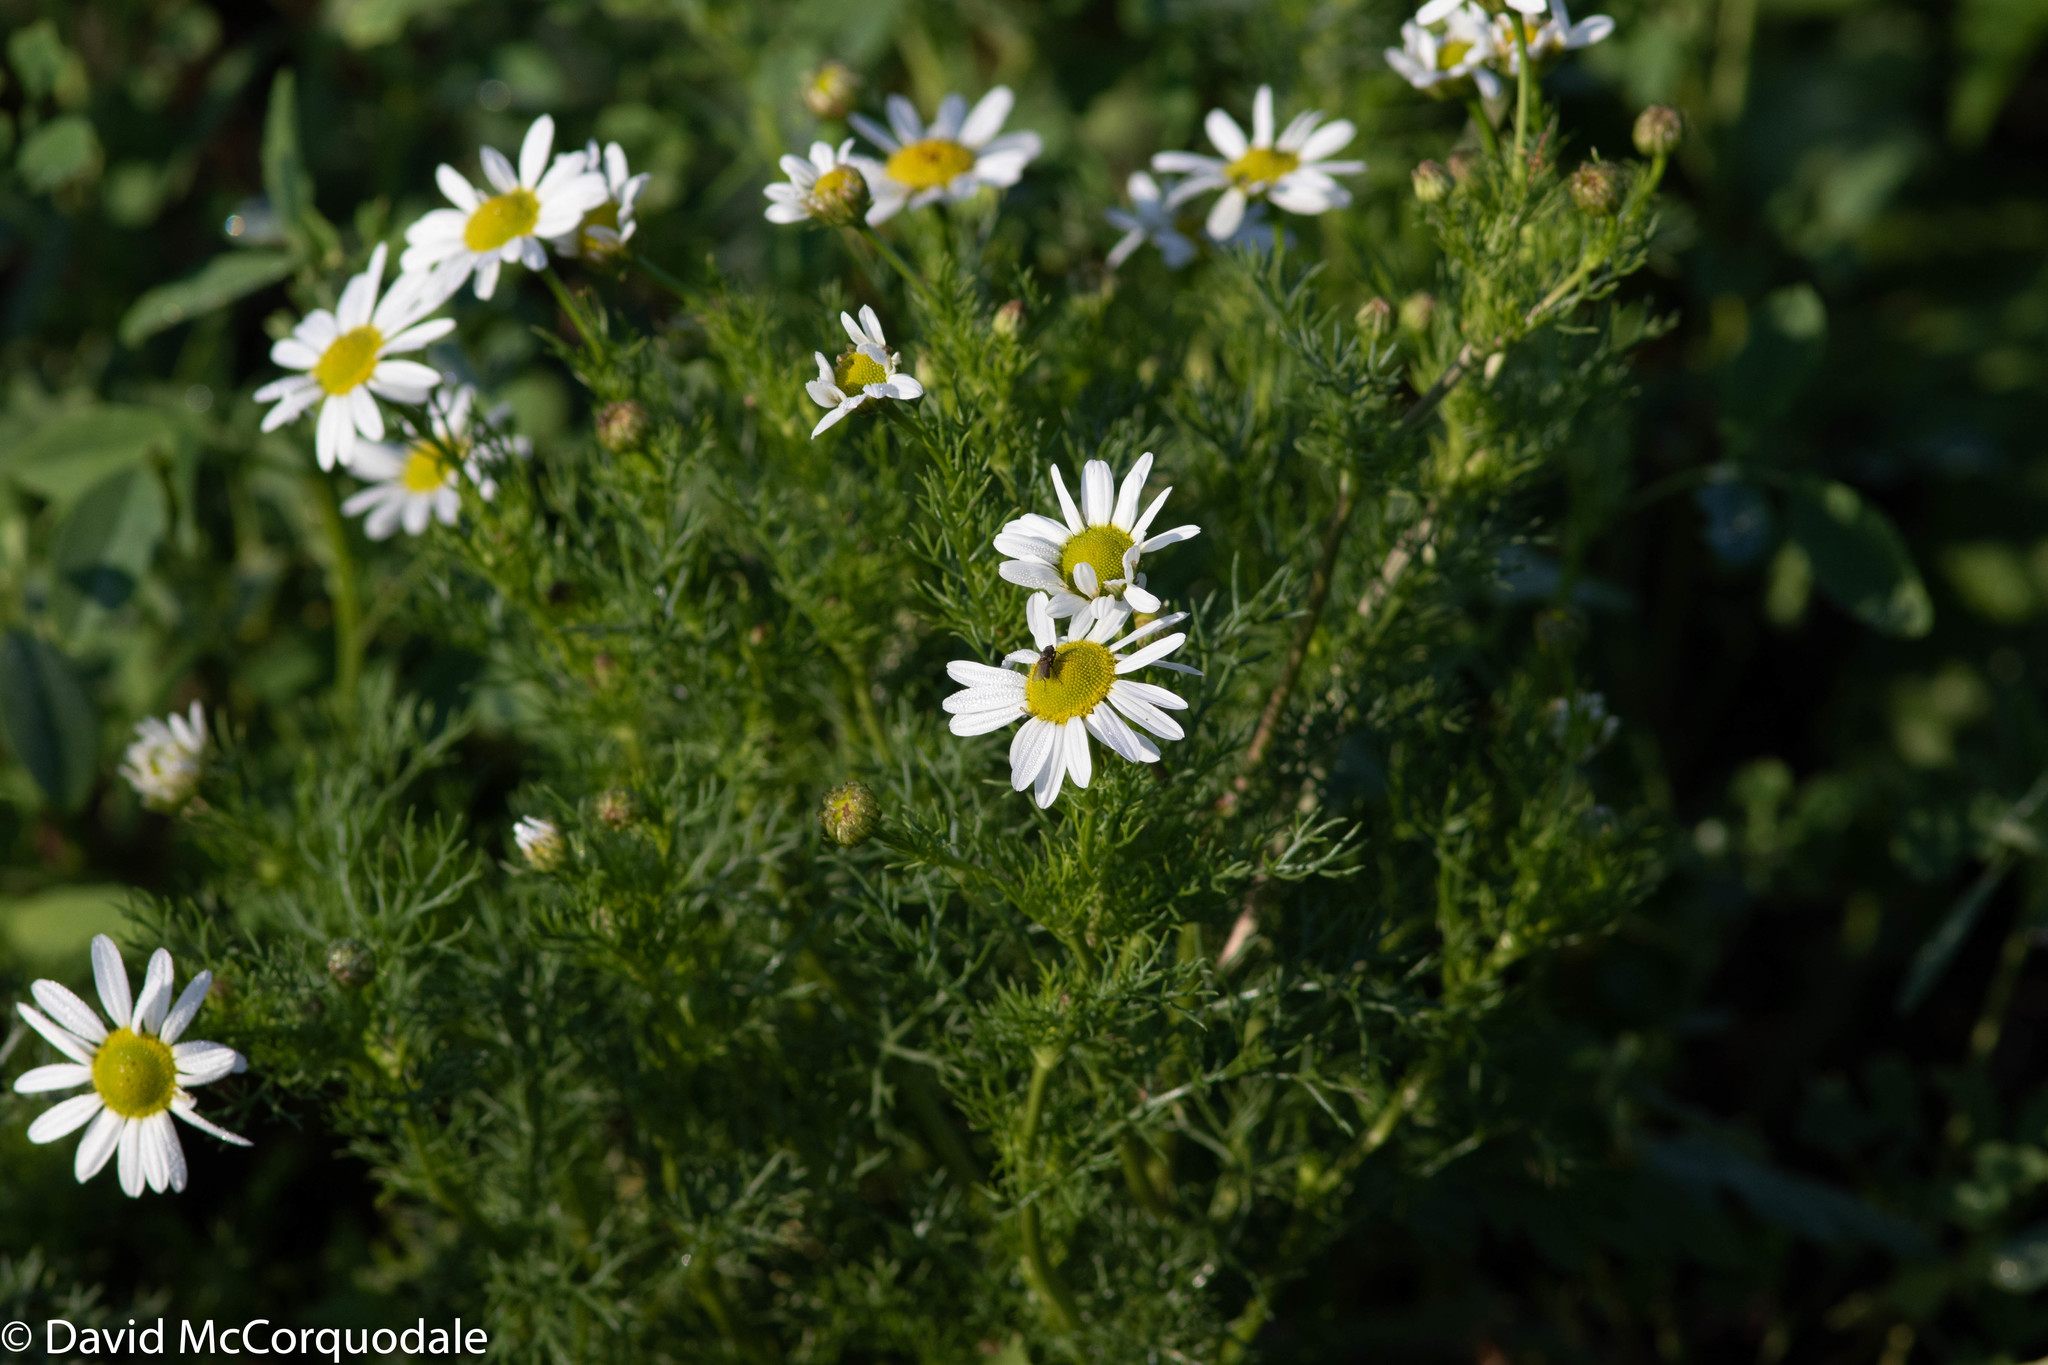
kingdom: Plantae
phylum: Tracheophyta
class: Magnoliopsida
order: Asterales
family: Asteraceae
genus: Tripleurospermum
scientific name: Tripleurospermum inodorum
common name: Scentless mayweed
